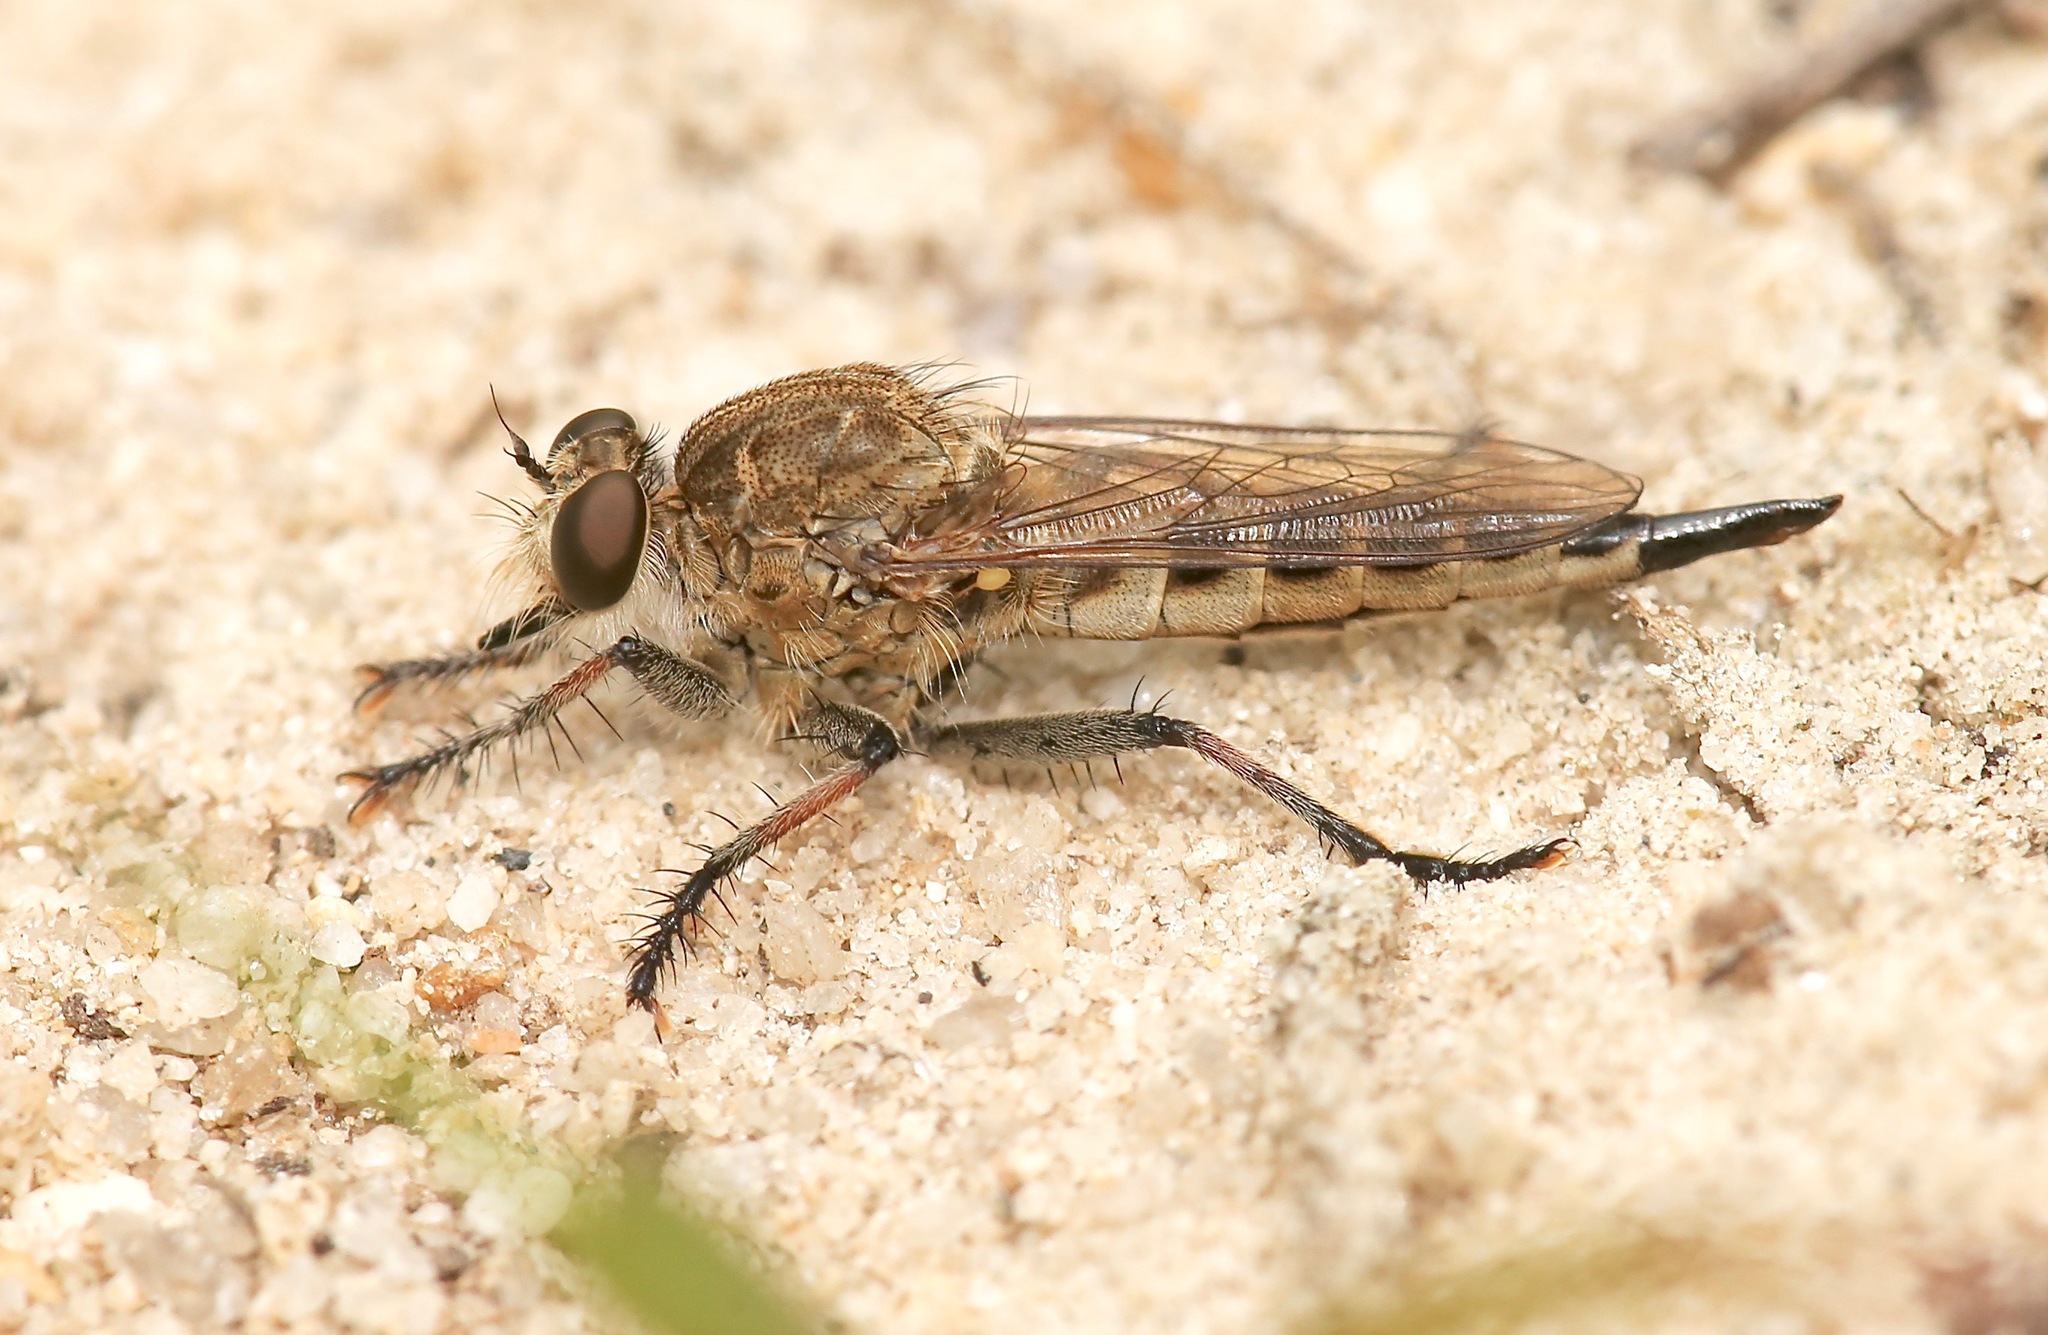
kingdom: Animalia
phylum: Arthropoda
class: Insecta
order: Diptera
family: Asilidae
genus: Efferia
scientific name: Efferia albibarbis
